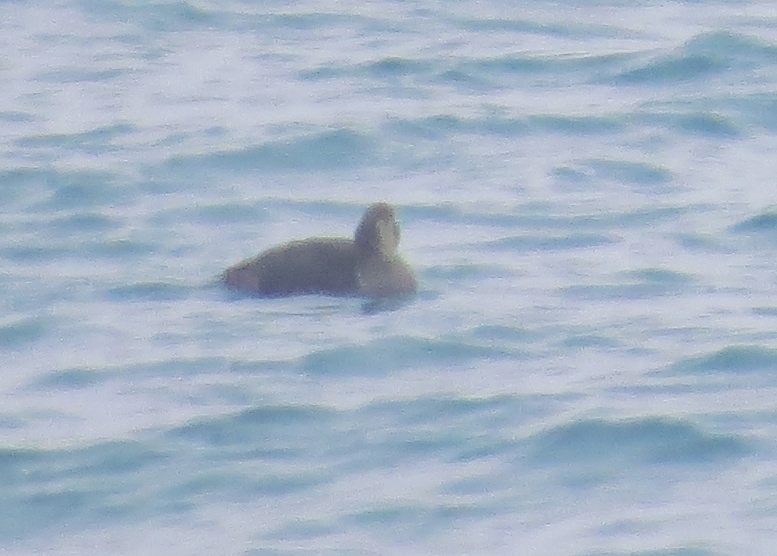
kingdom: Animalia
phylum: Chordata
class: Aves
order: Anseriformes
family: Anatidae
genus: Somateria
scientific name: Somateria mollissima
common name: Common eider
